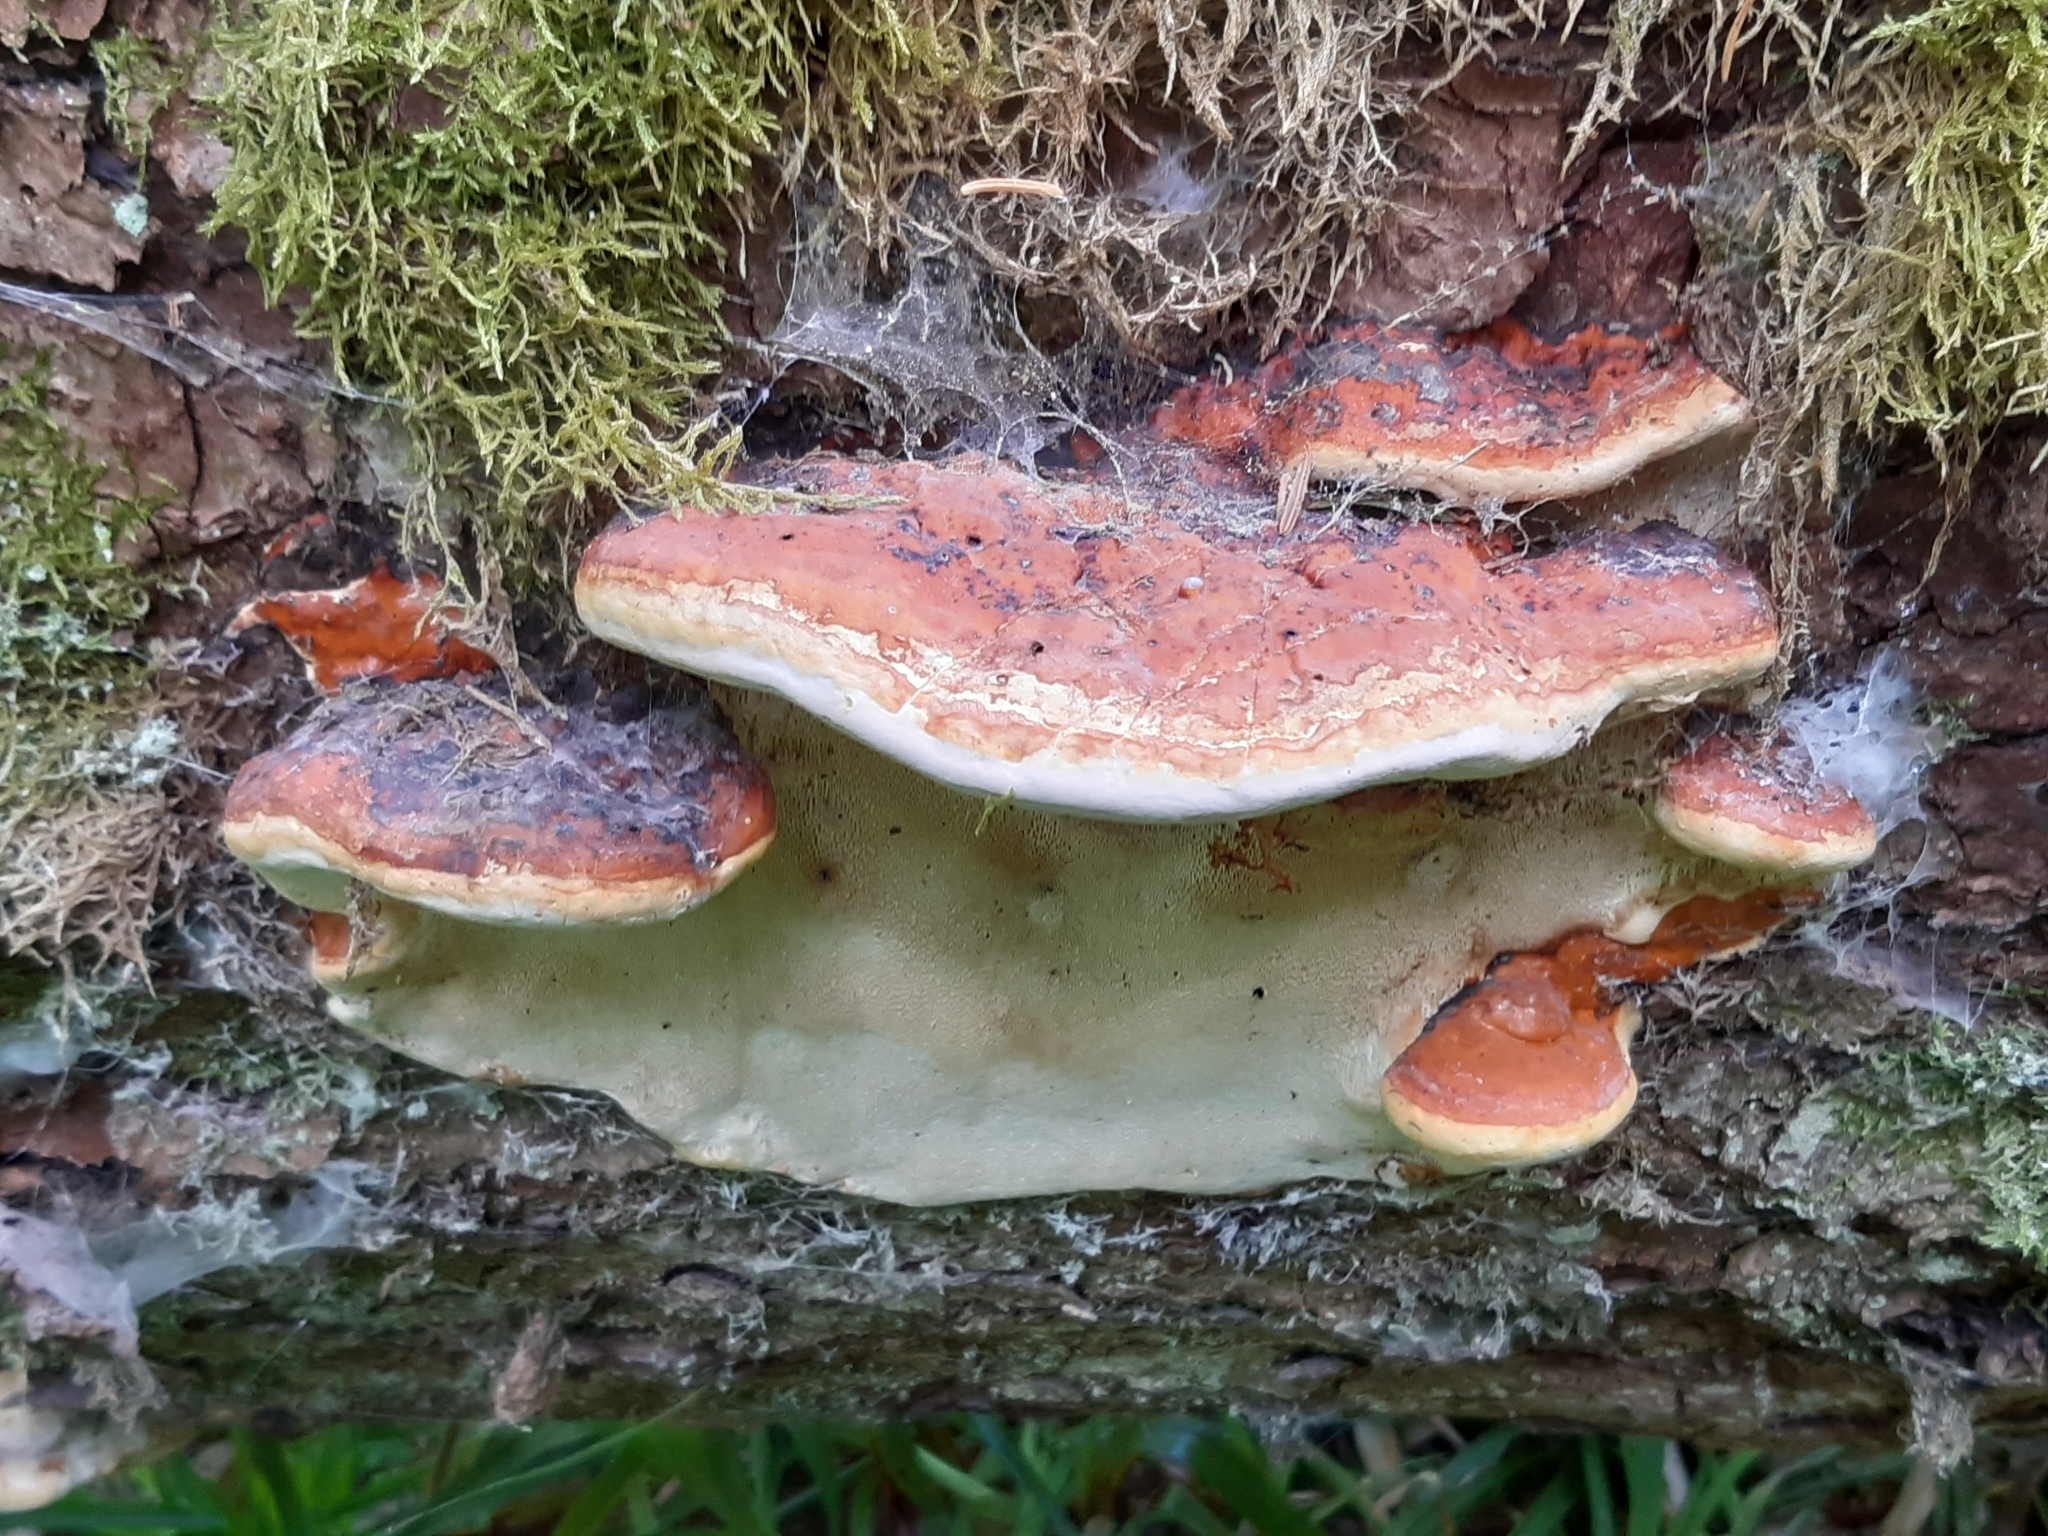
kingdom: Fungi
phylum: Basidiomycota
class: Agaricomycetes
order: Polyporales
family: Fomitopsidaceae
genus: Fomitopsis
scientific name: Fomitopsis pinicola
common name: Red-belted bracket
